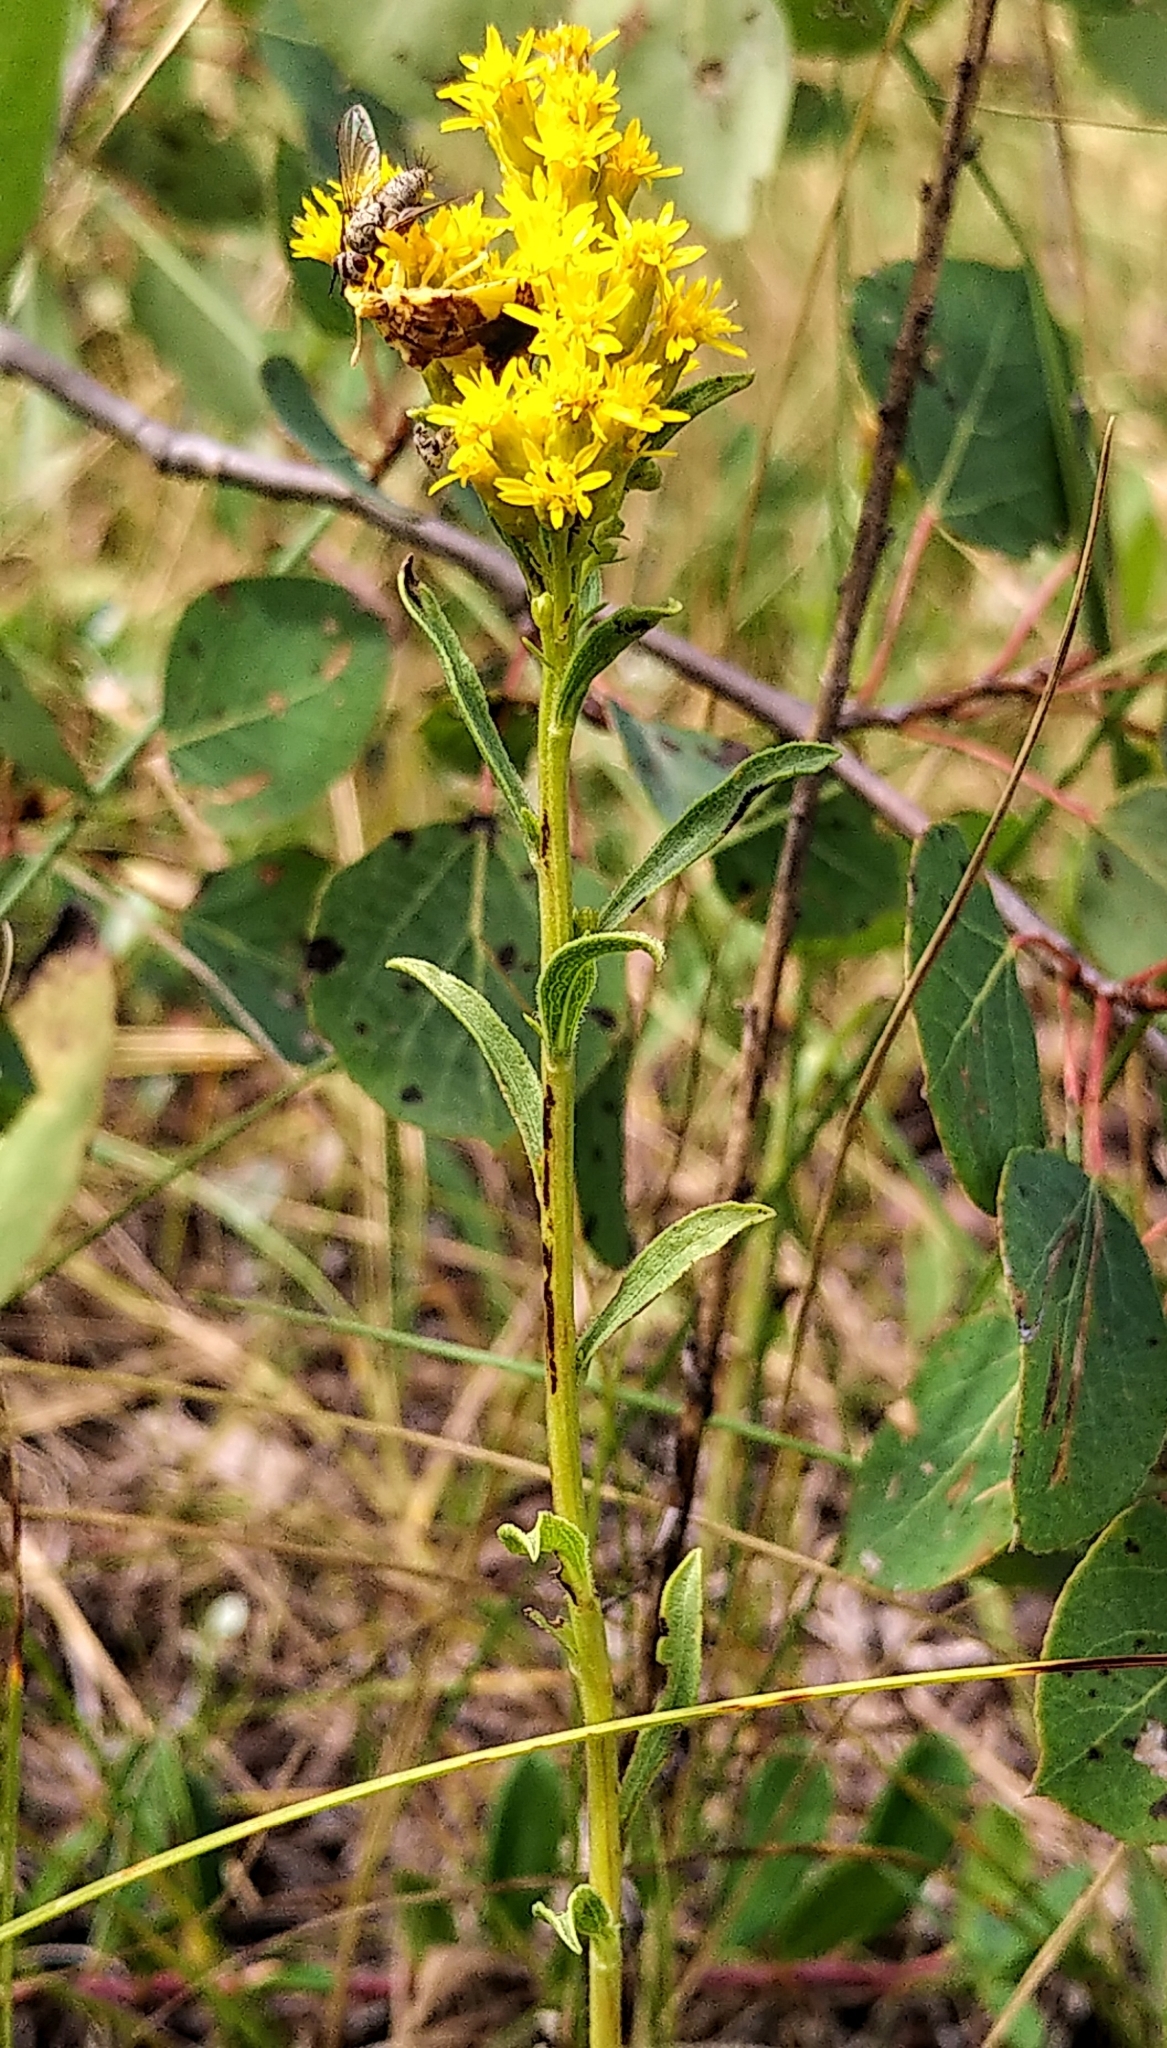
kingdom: Plantae
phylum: Tracheophyta
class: Magnoliopsida
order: Asterales
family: Asteraceae
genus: Solidago
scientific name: Solidago missouriensis
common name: Prairie goldenrod
